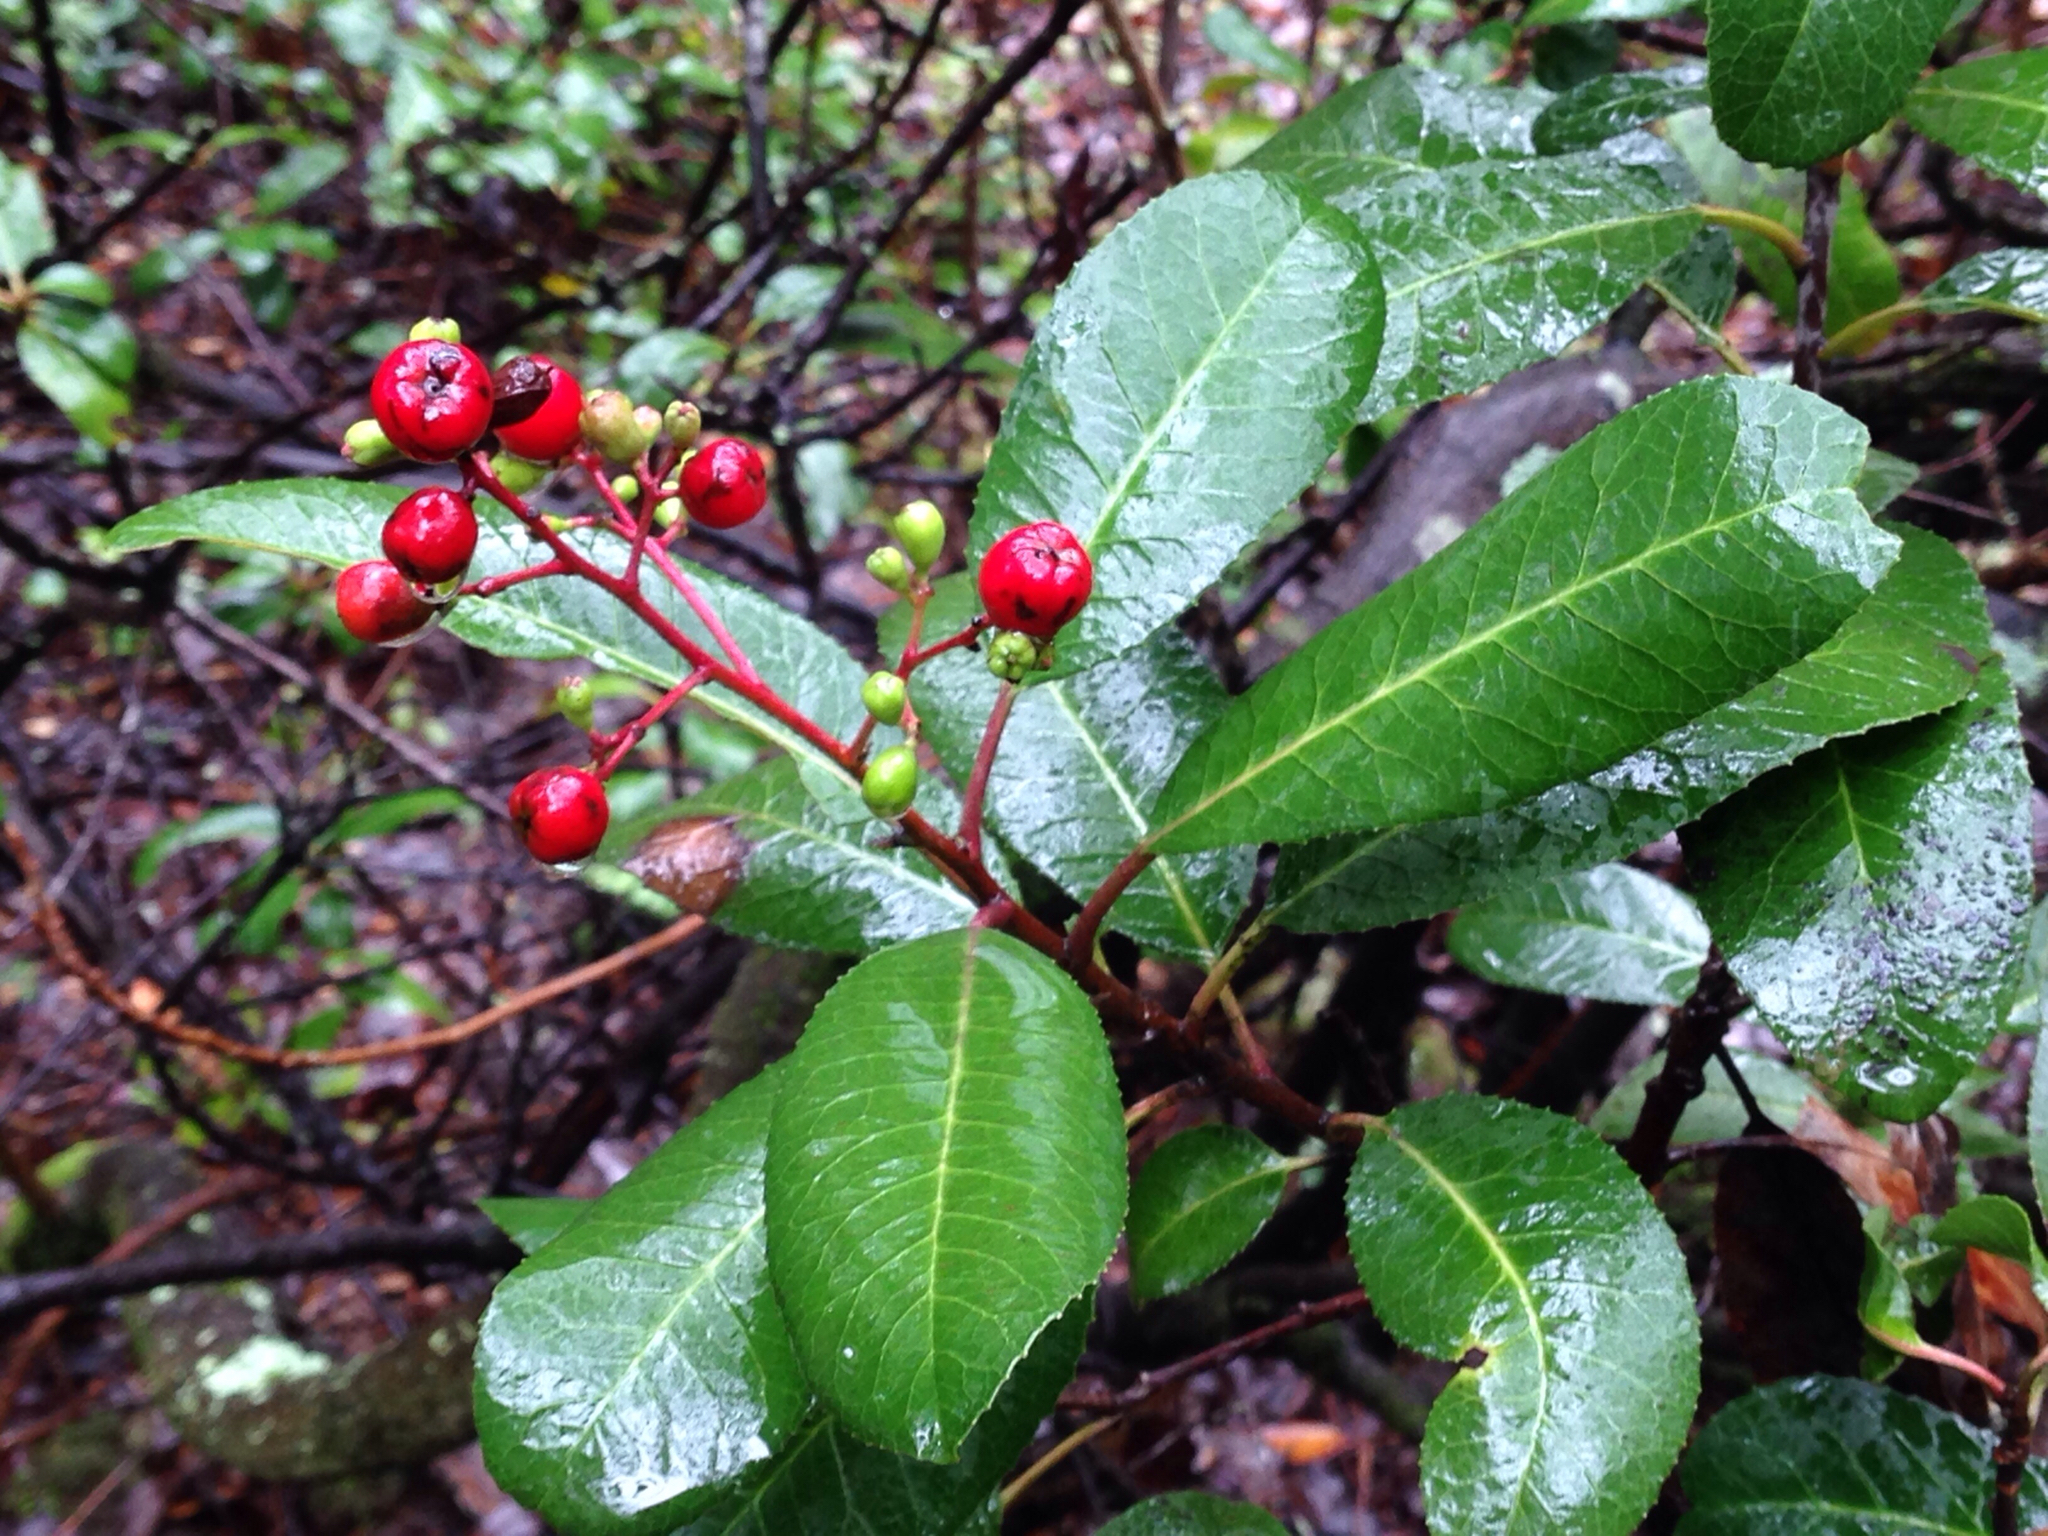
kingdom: Plantae
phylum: Tracheophyta
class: Magnoliopsida
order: Rosales
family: Rosaceae
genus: Heteromeles
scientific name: Heteromeles arbutifolia
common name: California-holly
